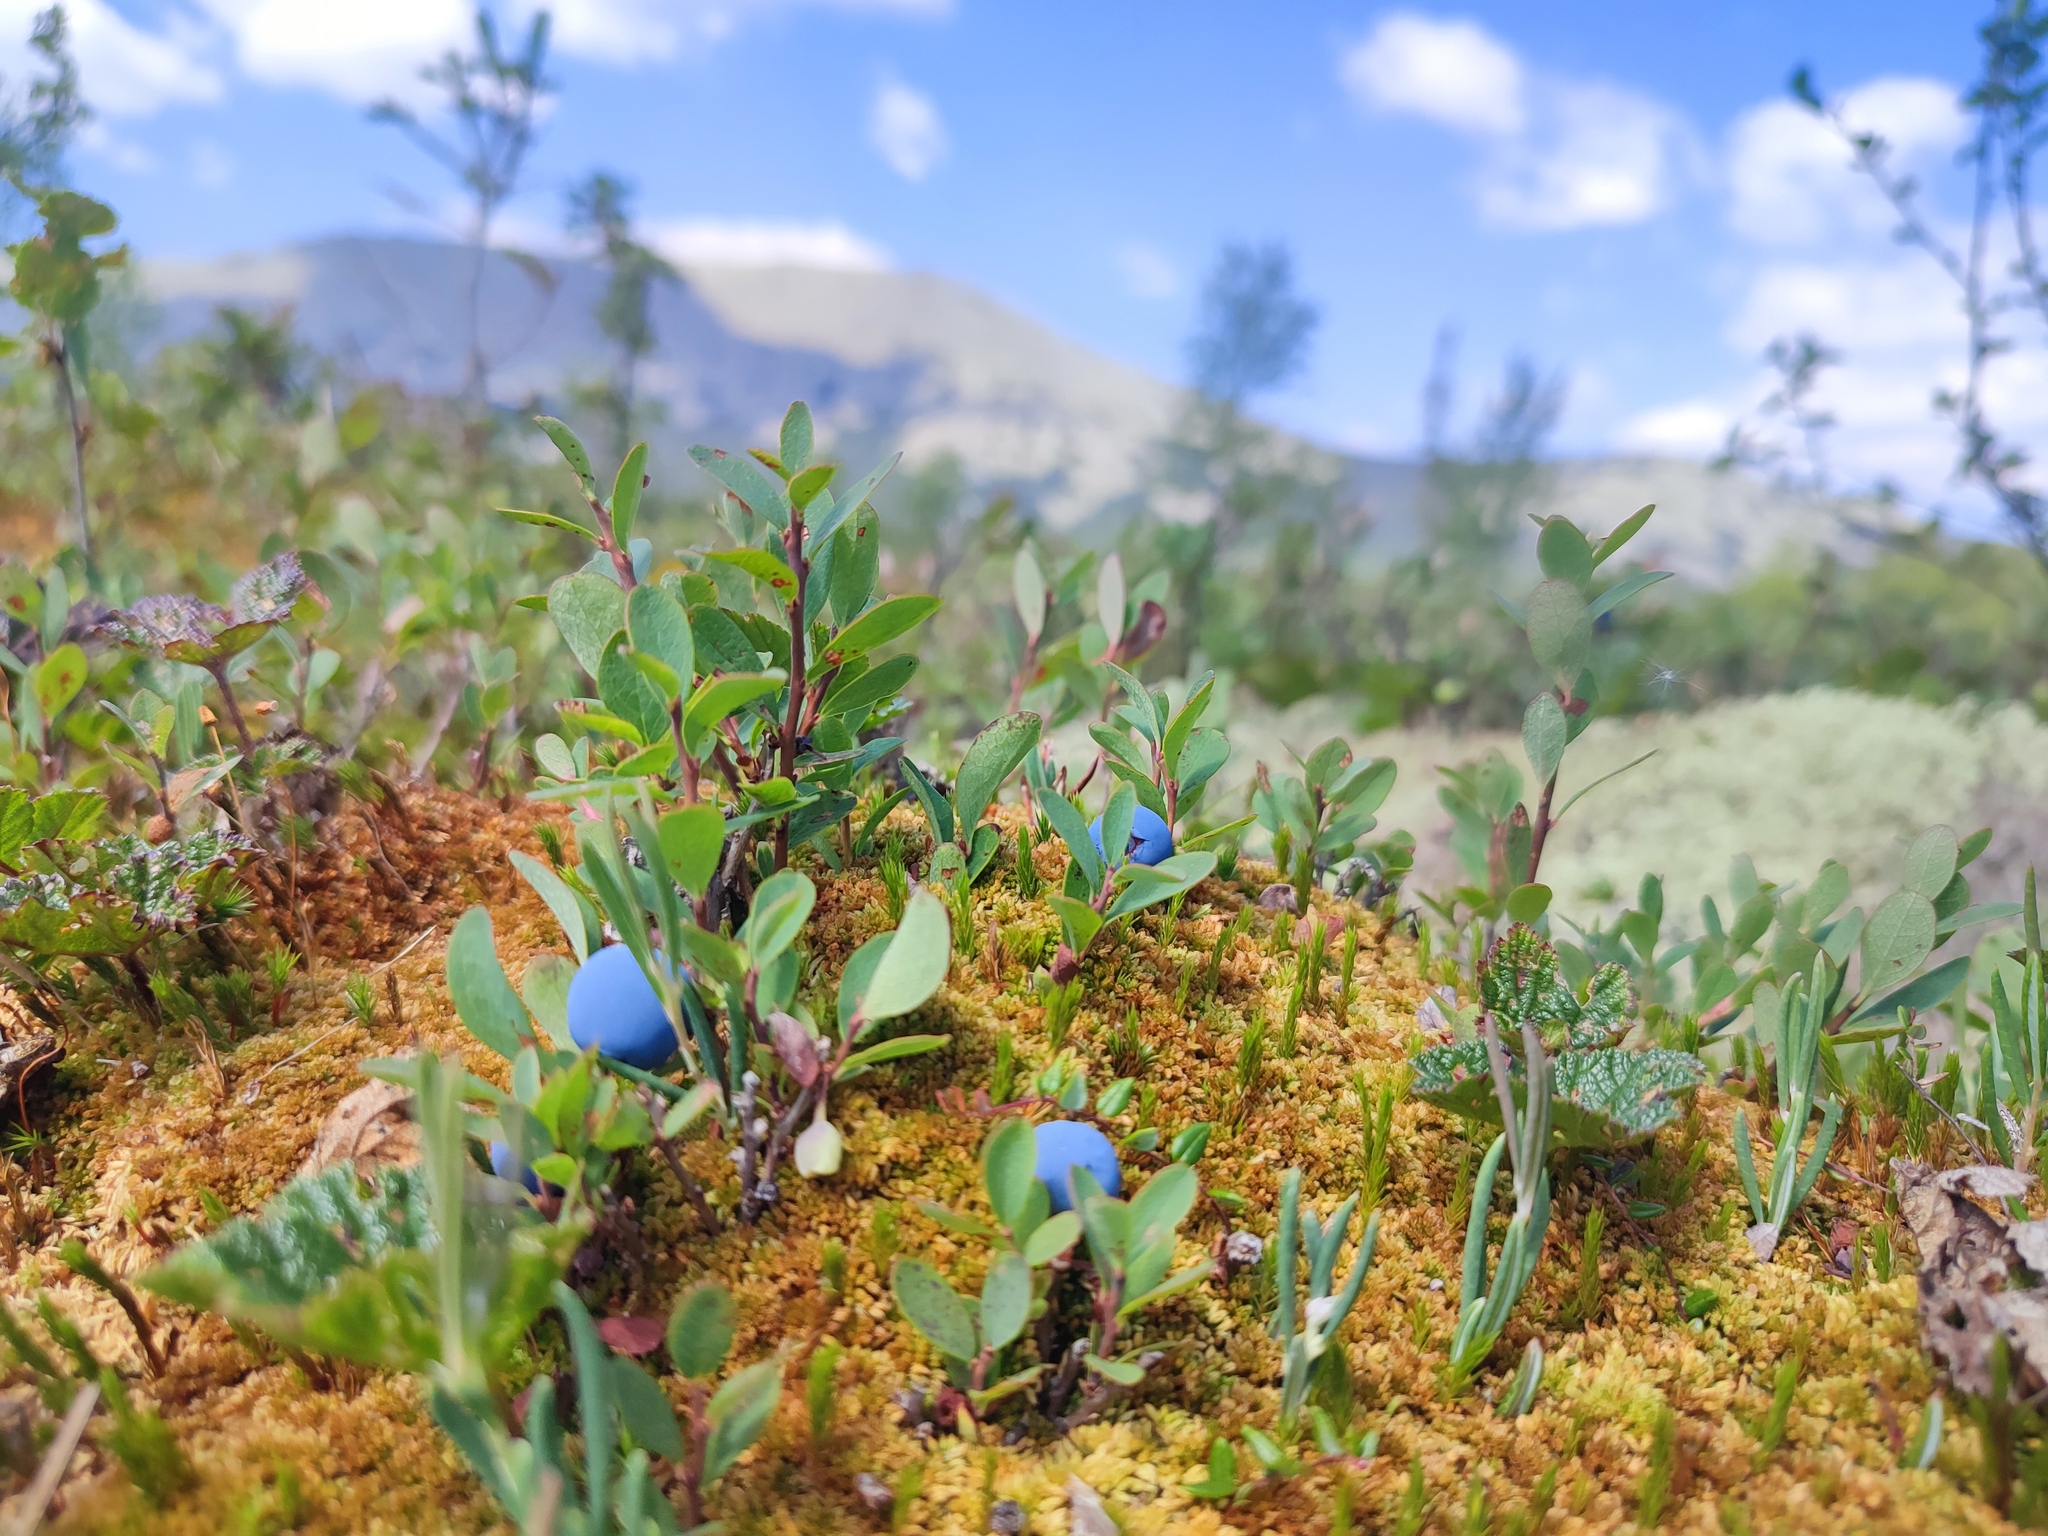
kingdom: Plantae
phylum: Tracheophyta
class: Magnoliopsida
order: Ericales
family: Ericaceae
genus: Vaccinium
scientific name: Vaccinium uliginosum
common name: Bog bilberry
